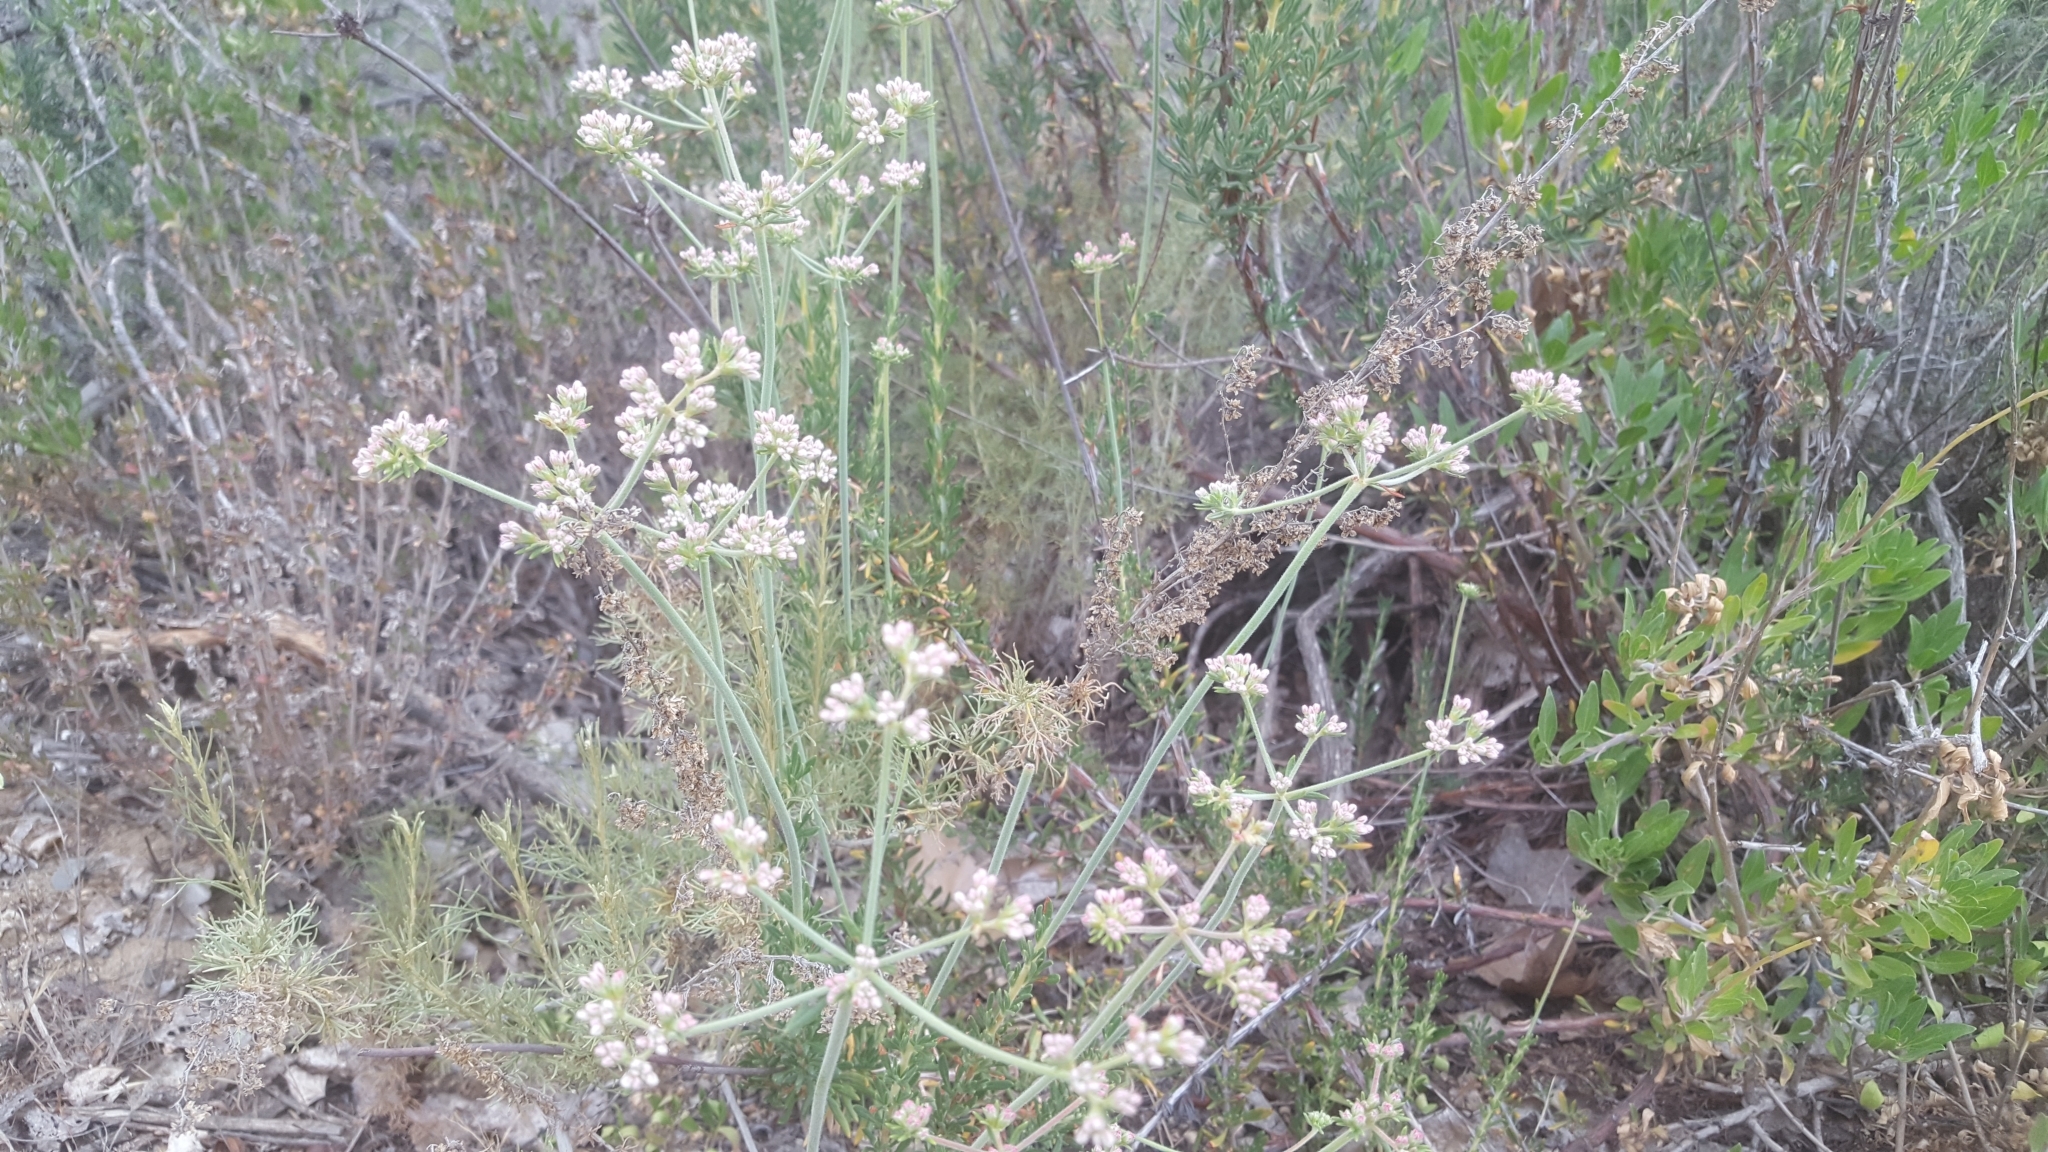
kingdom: Plantae
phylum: Tracheophyta
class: Magnoliopsida
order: Caryophyllales
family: Polygonaceae
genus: Eriogonum
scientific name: Eriogonum fasciculatum
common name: California wild buckwheat
